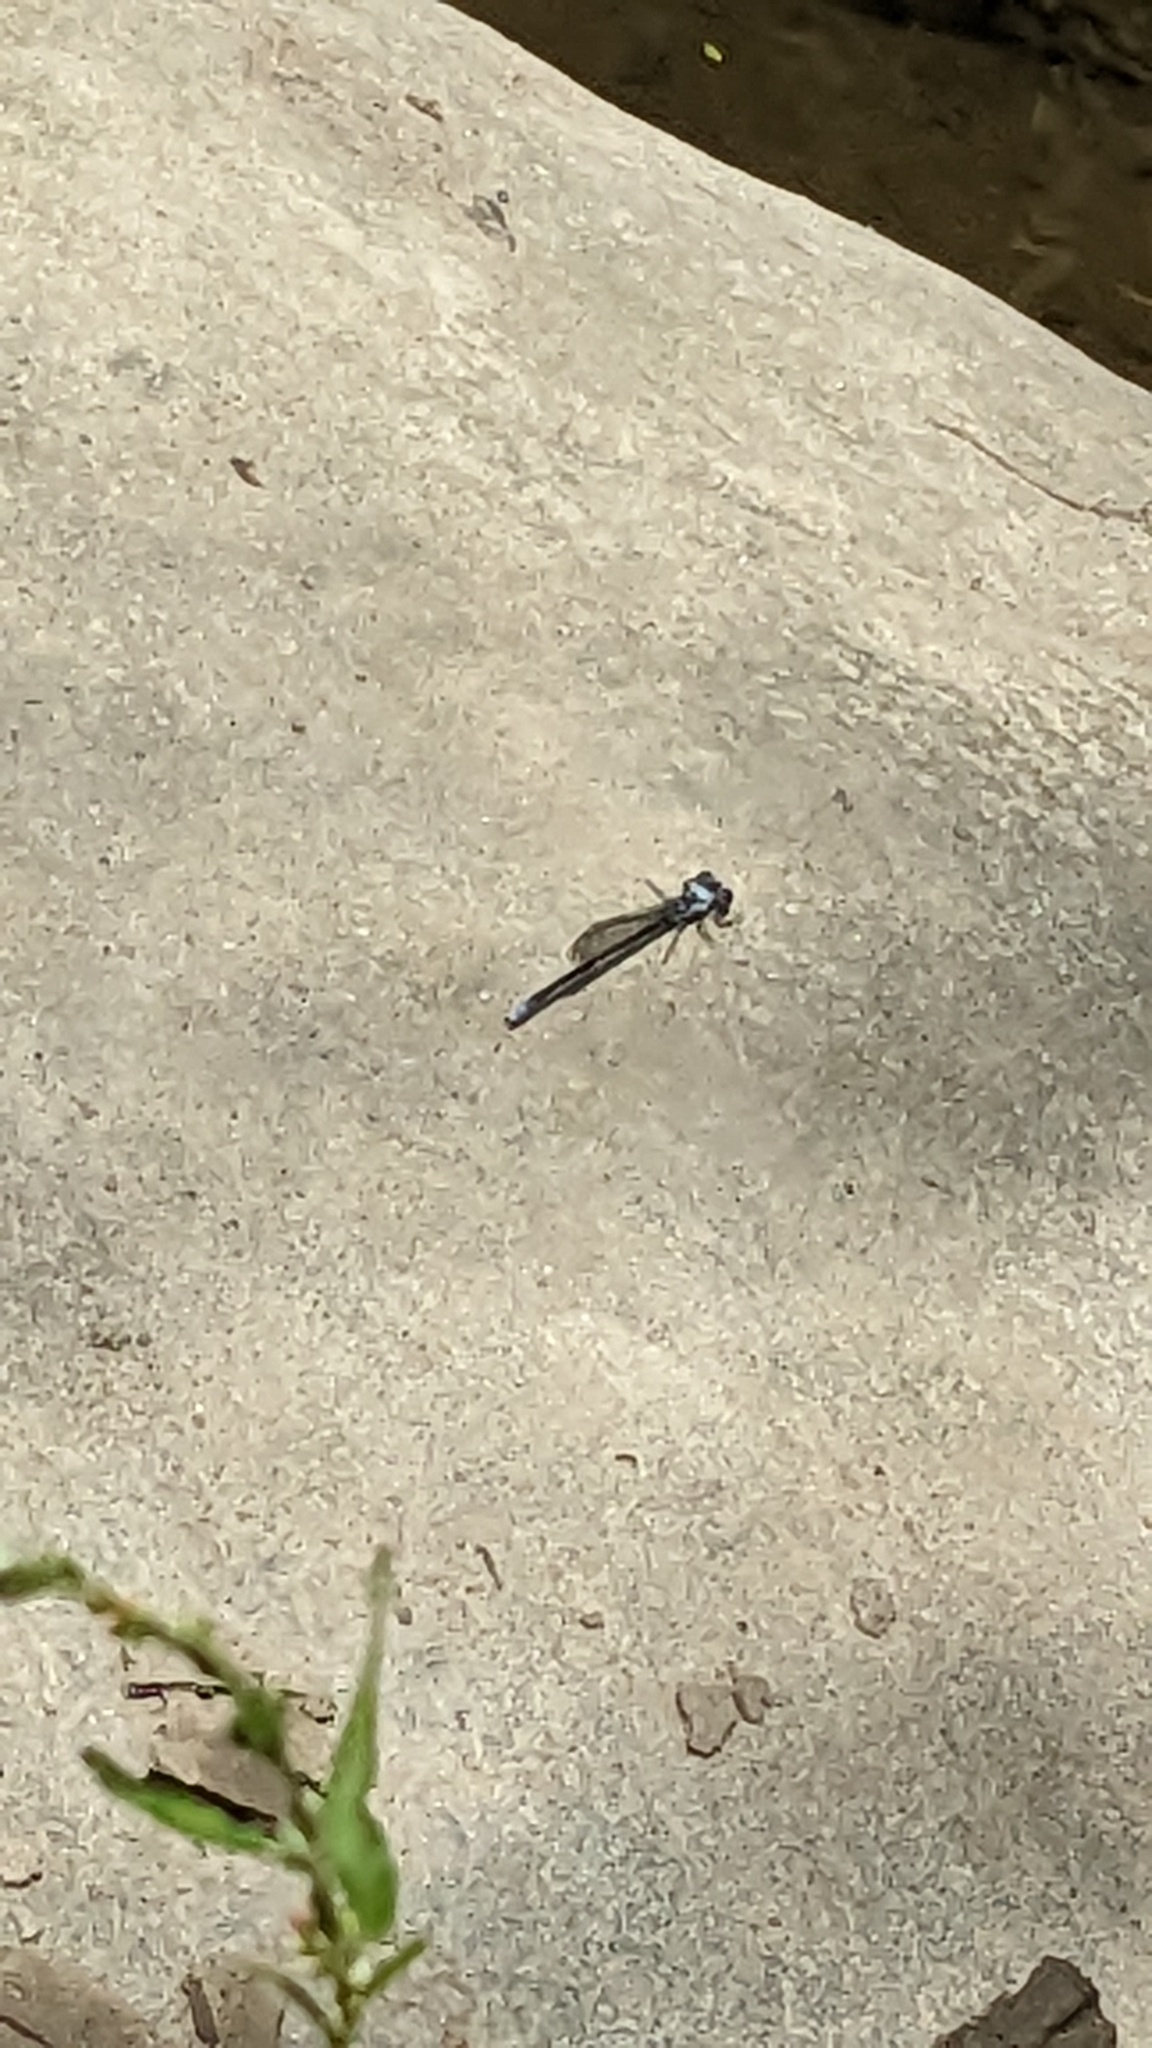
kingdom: Animalia
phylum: Arthropoda
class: Insecta
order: Odonata
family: Coenagrionidae
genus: Argia
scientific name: Argia moesta
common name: Powdered dancer
